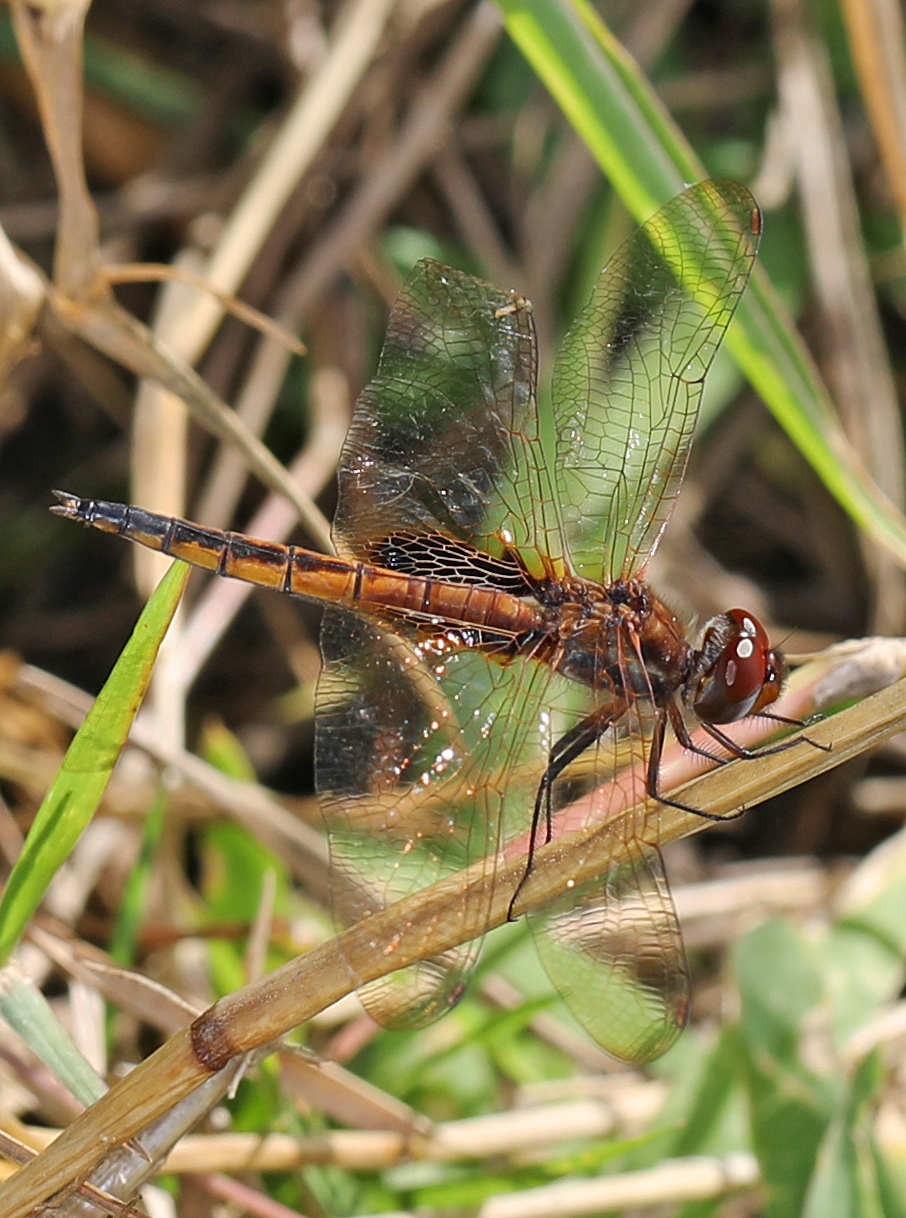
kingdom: Animalia
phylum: Arthropoda
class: Insecta
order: Odonata
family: Libellulidae
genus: Miathyria
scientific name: Miathyria marcella
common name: Hyacinth glider
